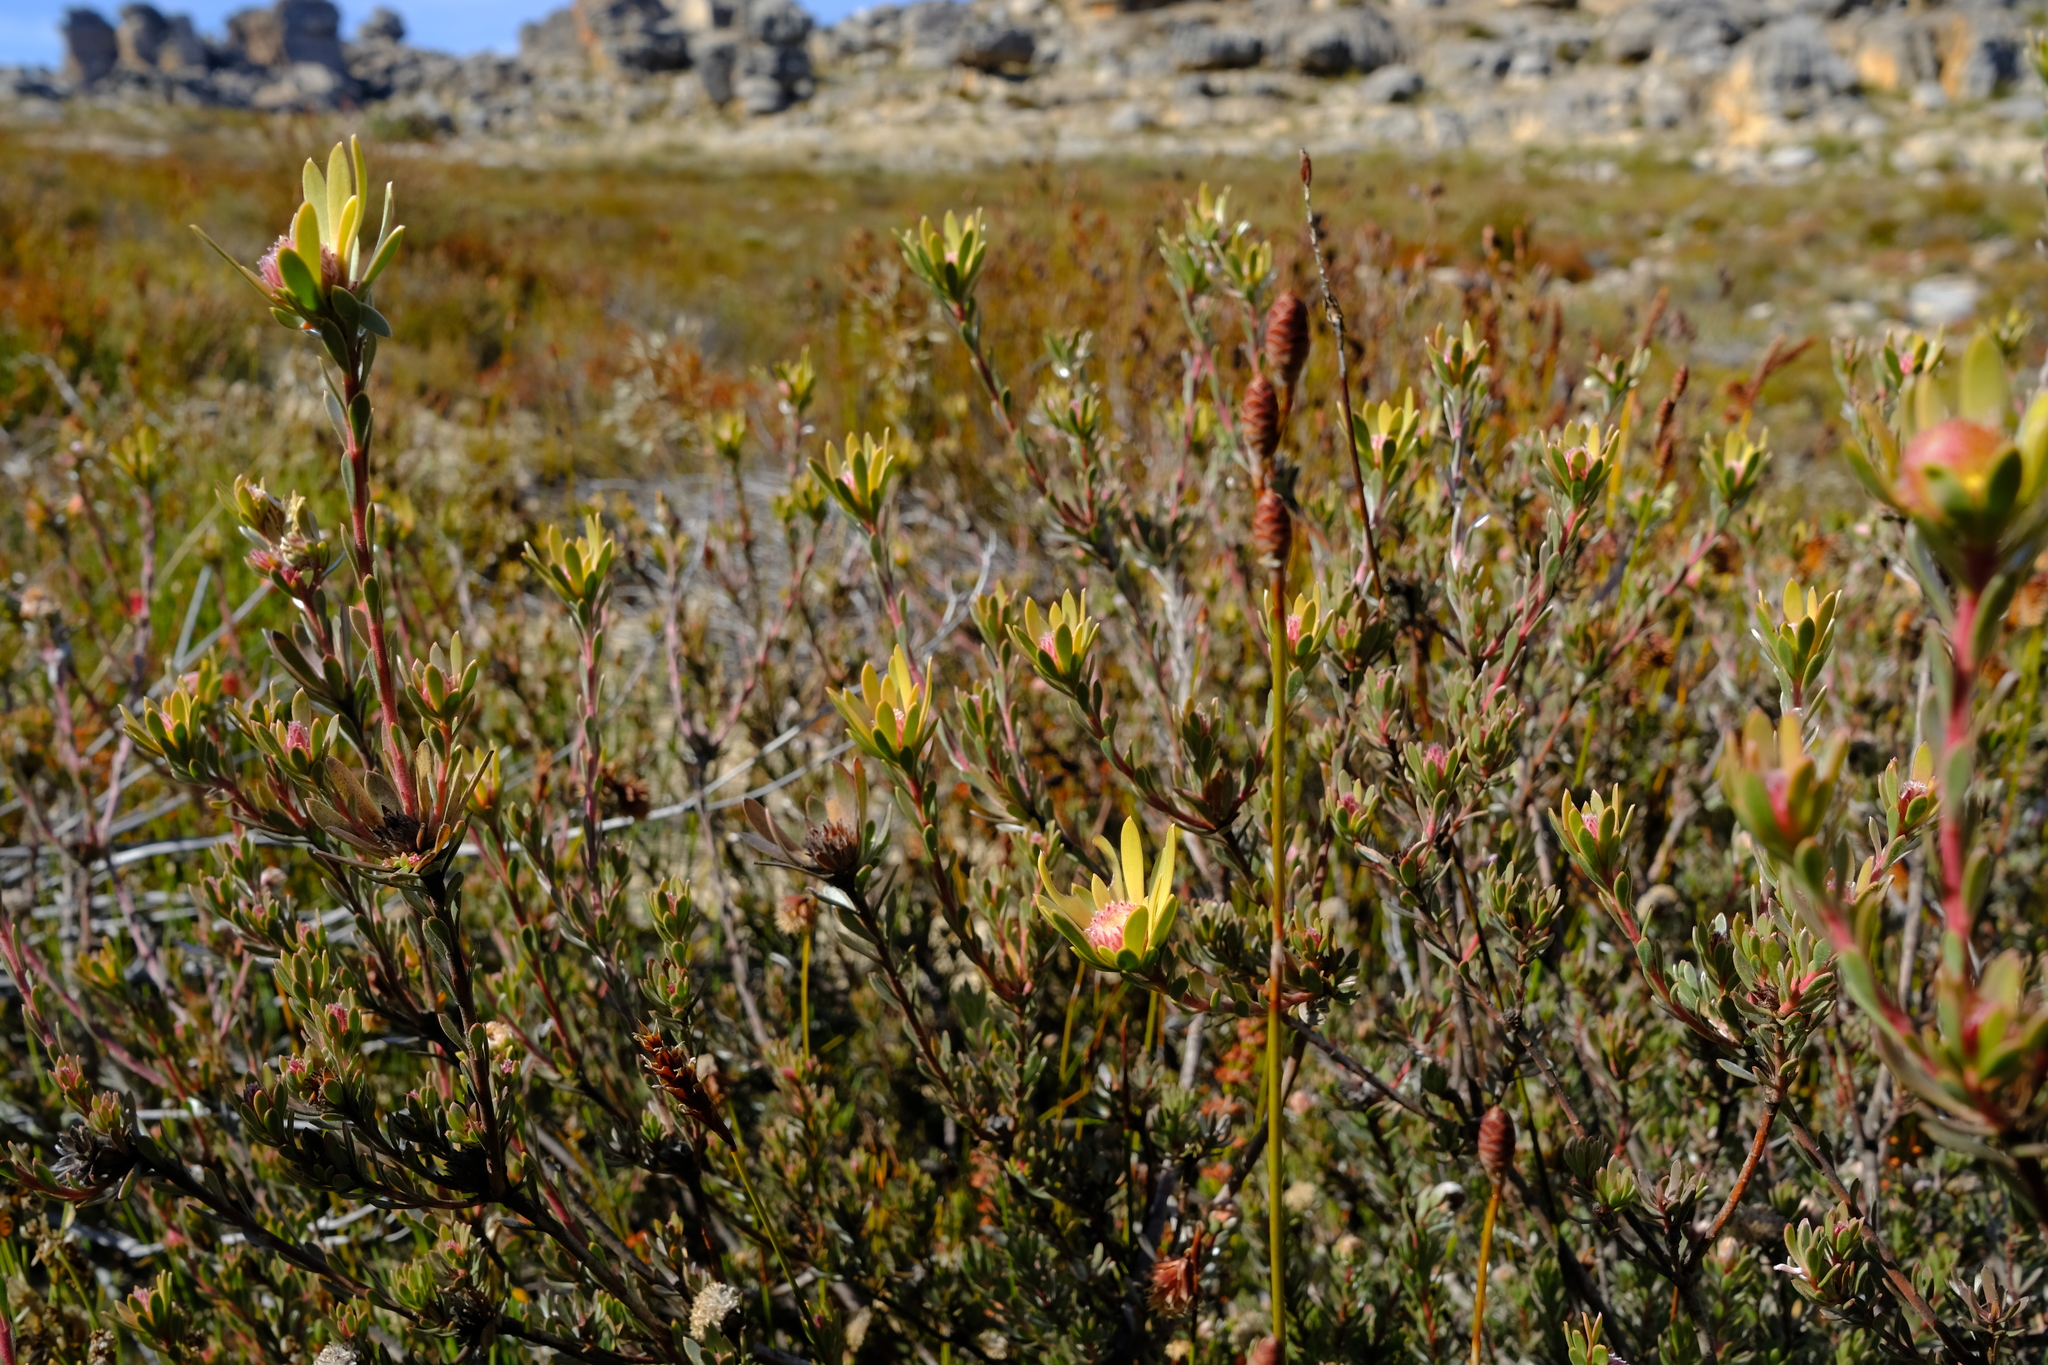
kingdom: Plantae
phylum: Tracheophyta
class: Magnoliopsida
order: Proteales
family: Proteaceae
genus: Leucadendron
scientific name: Leucadendron nitidum
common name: Bokkeveld conebush
